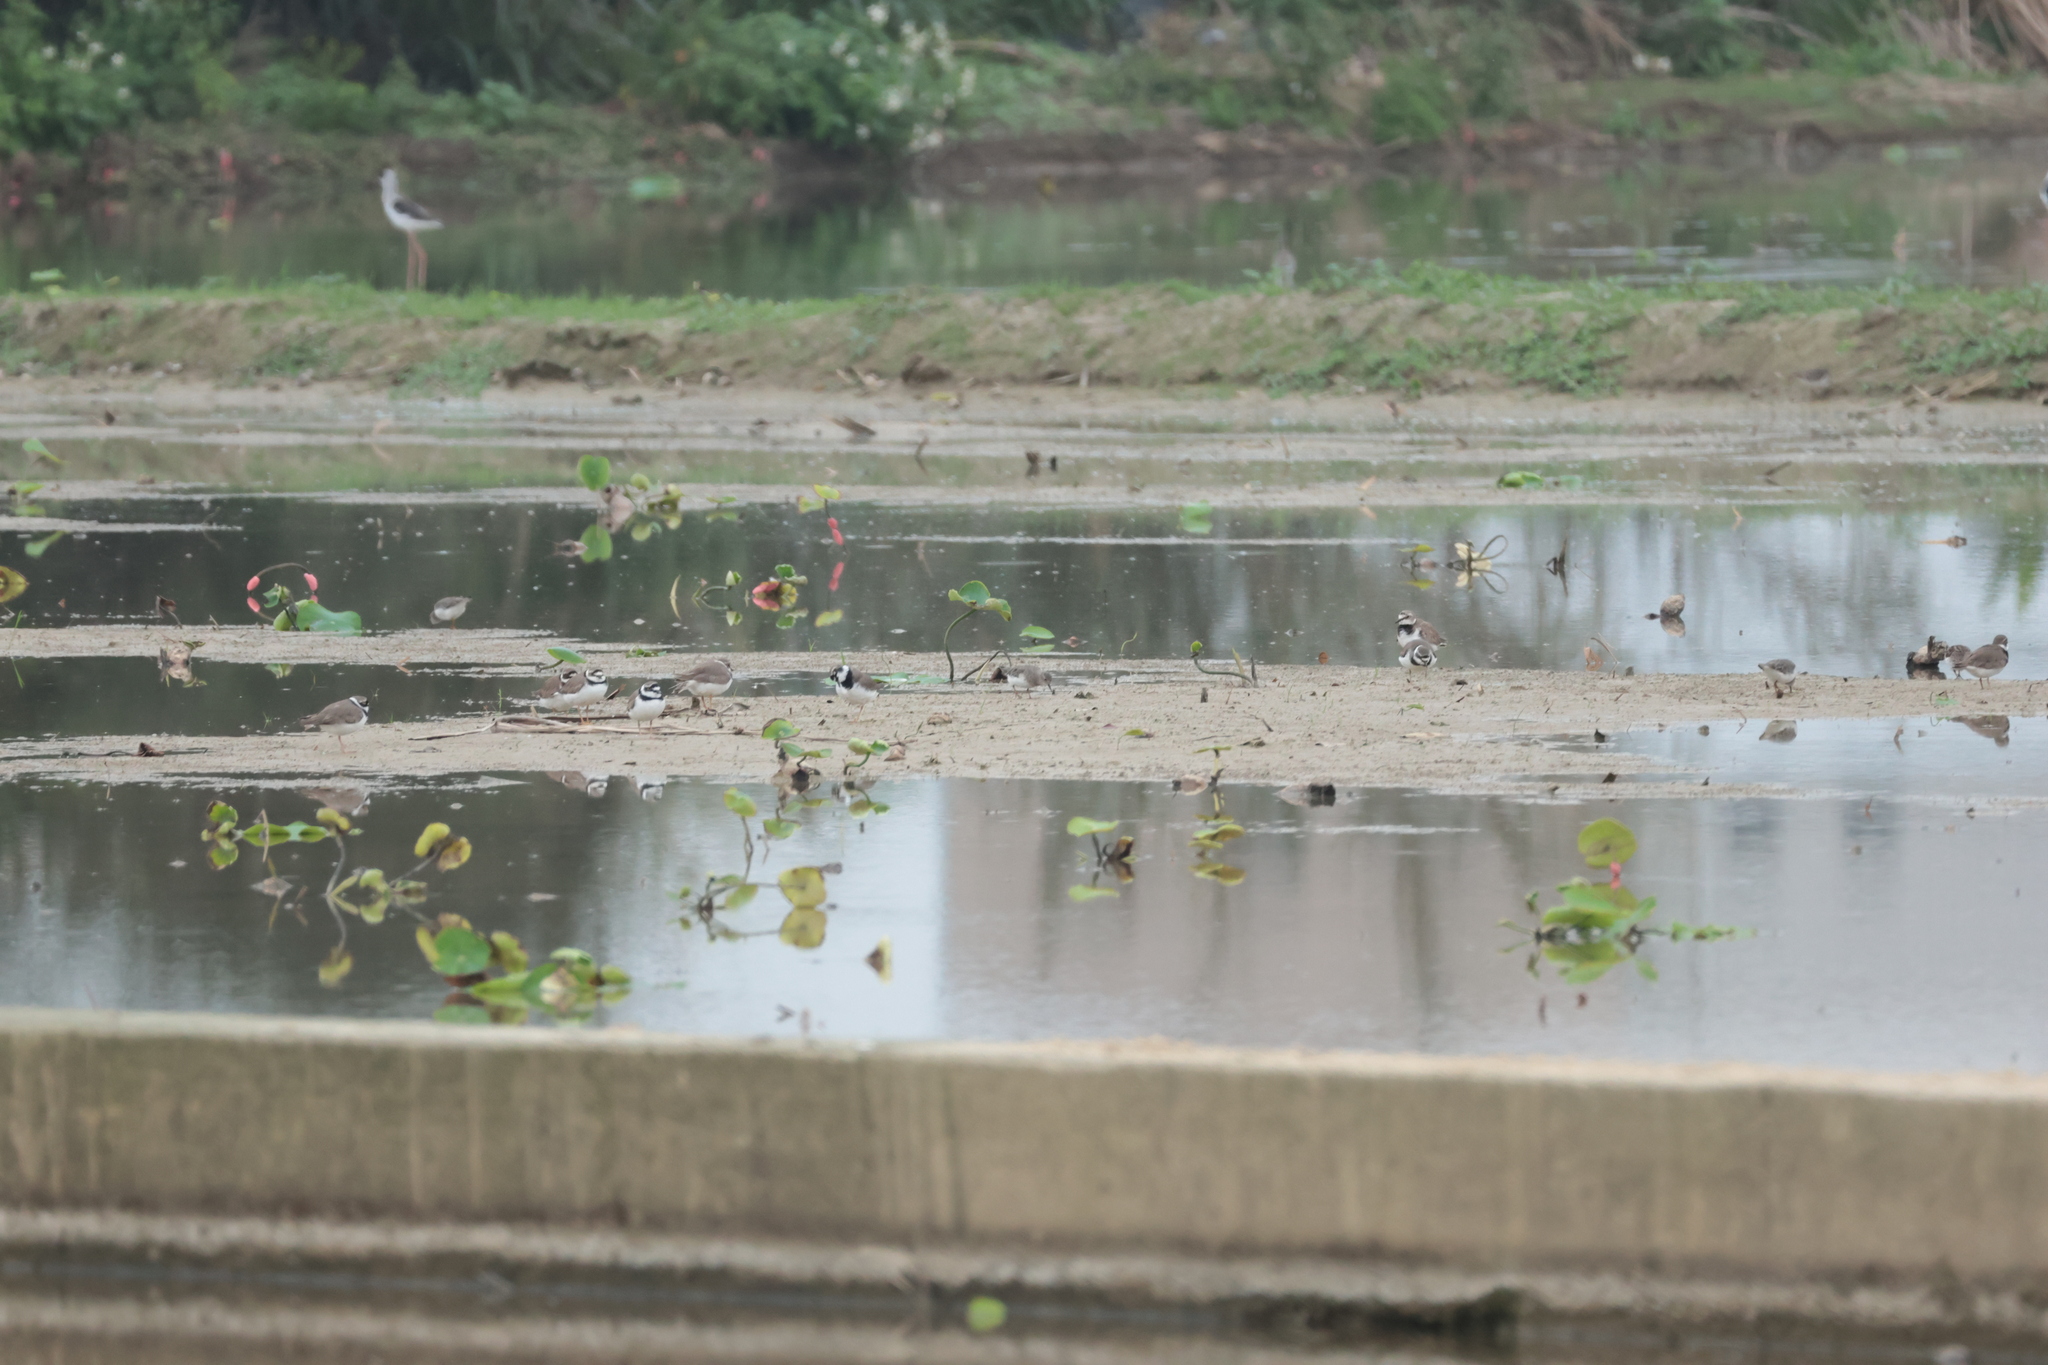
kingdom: Animalia
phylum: Chordata
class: Aves
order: Charadriiformes
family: Charadriidae
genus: Charadrius
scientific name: Charadrius dubius
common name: Little ringed plover
